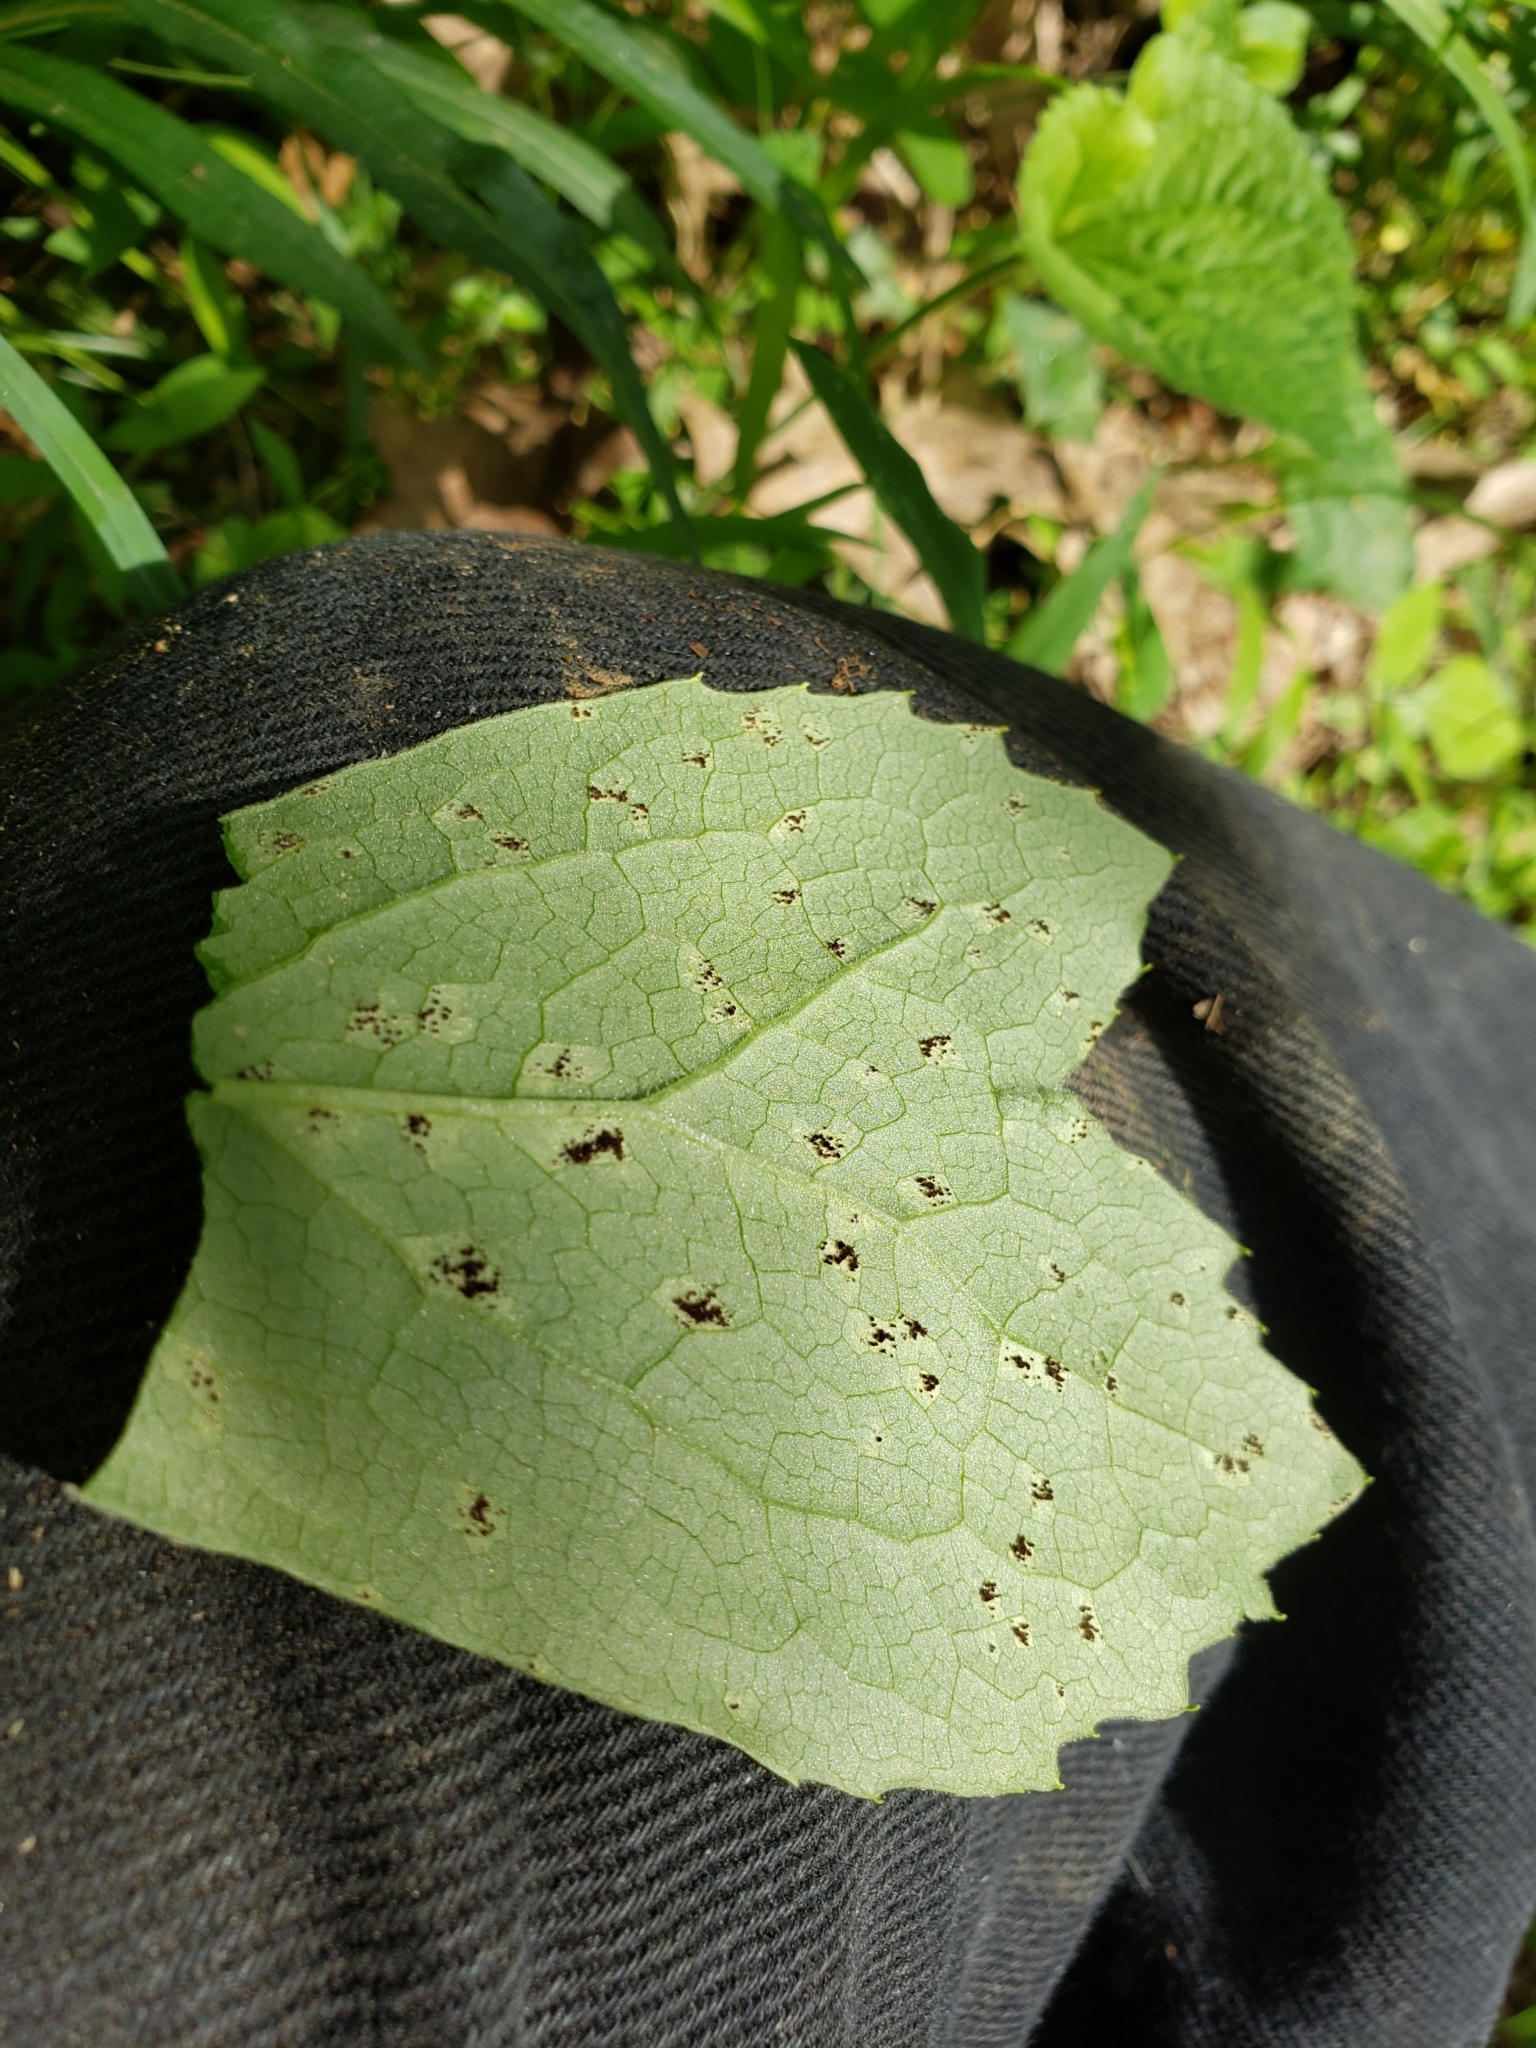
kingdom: Fungi
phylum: Basidiomycota
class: Pucciniomycetes
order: Pucciniales
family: Pucciniaceae
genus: Puccinia
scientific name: Puccinia podophylli
